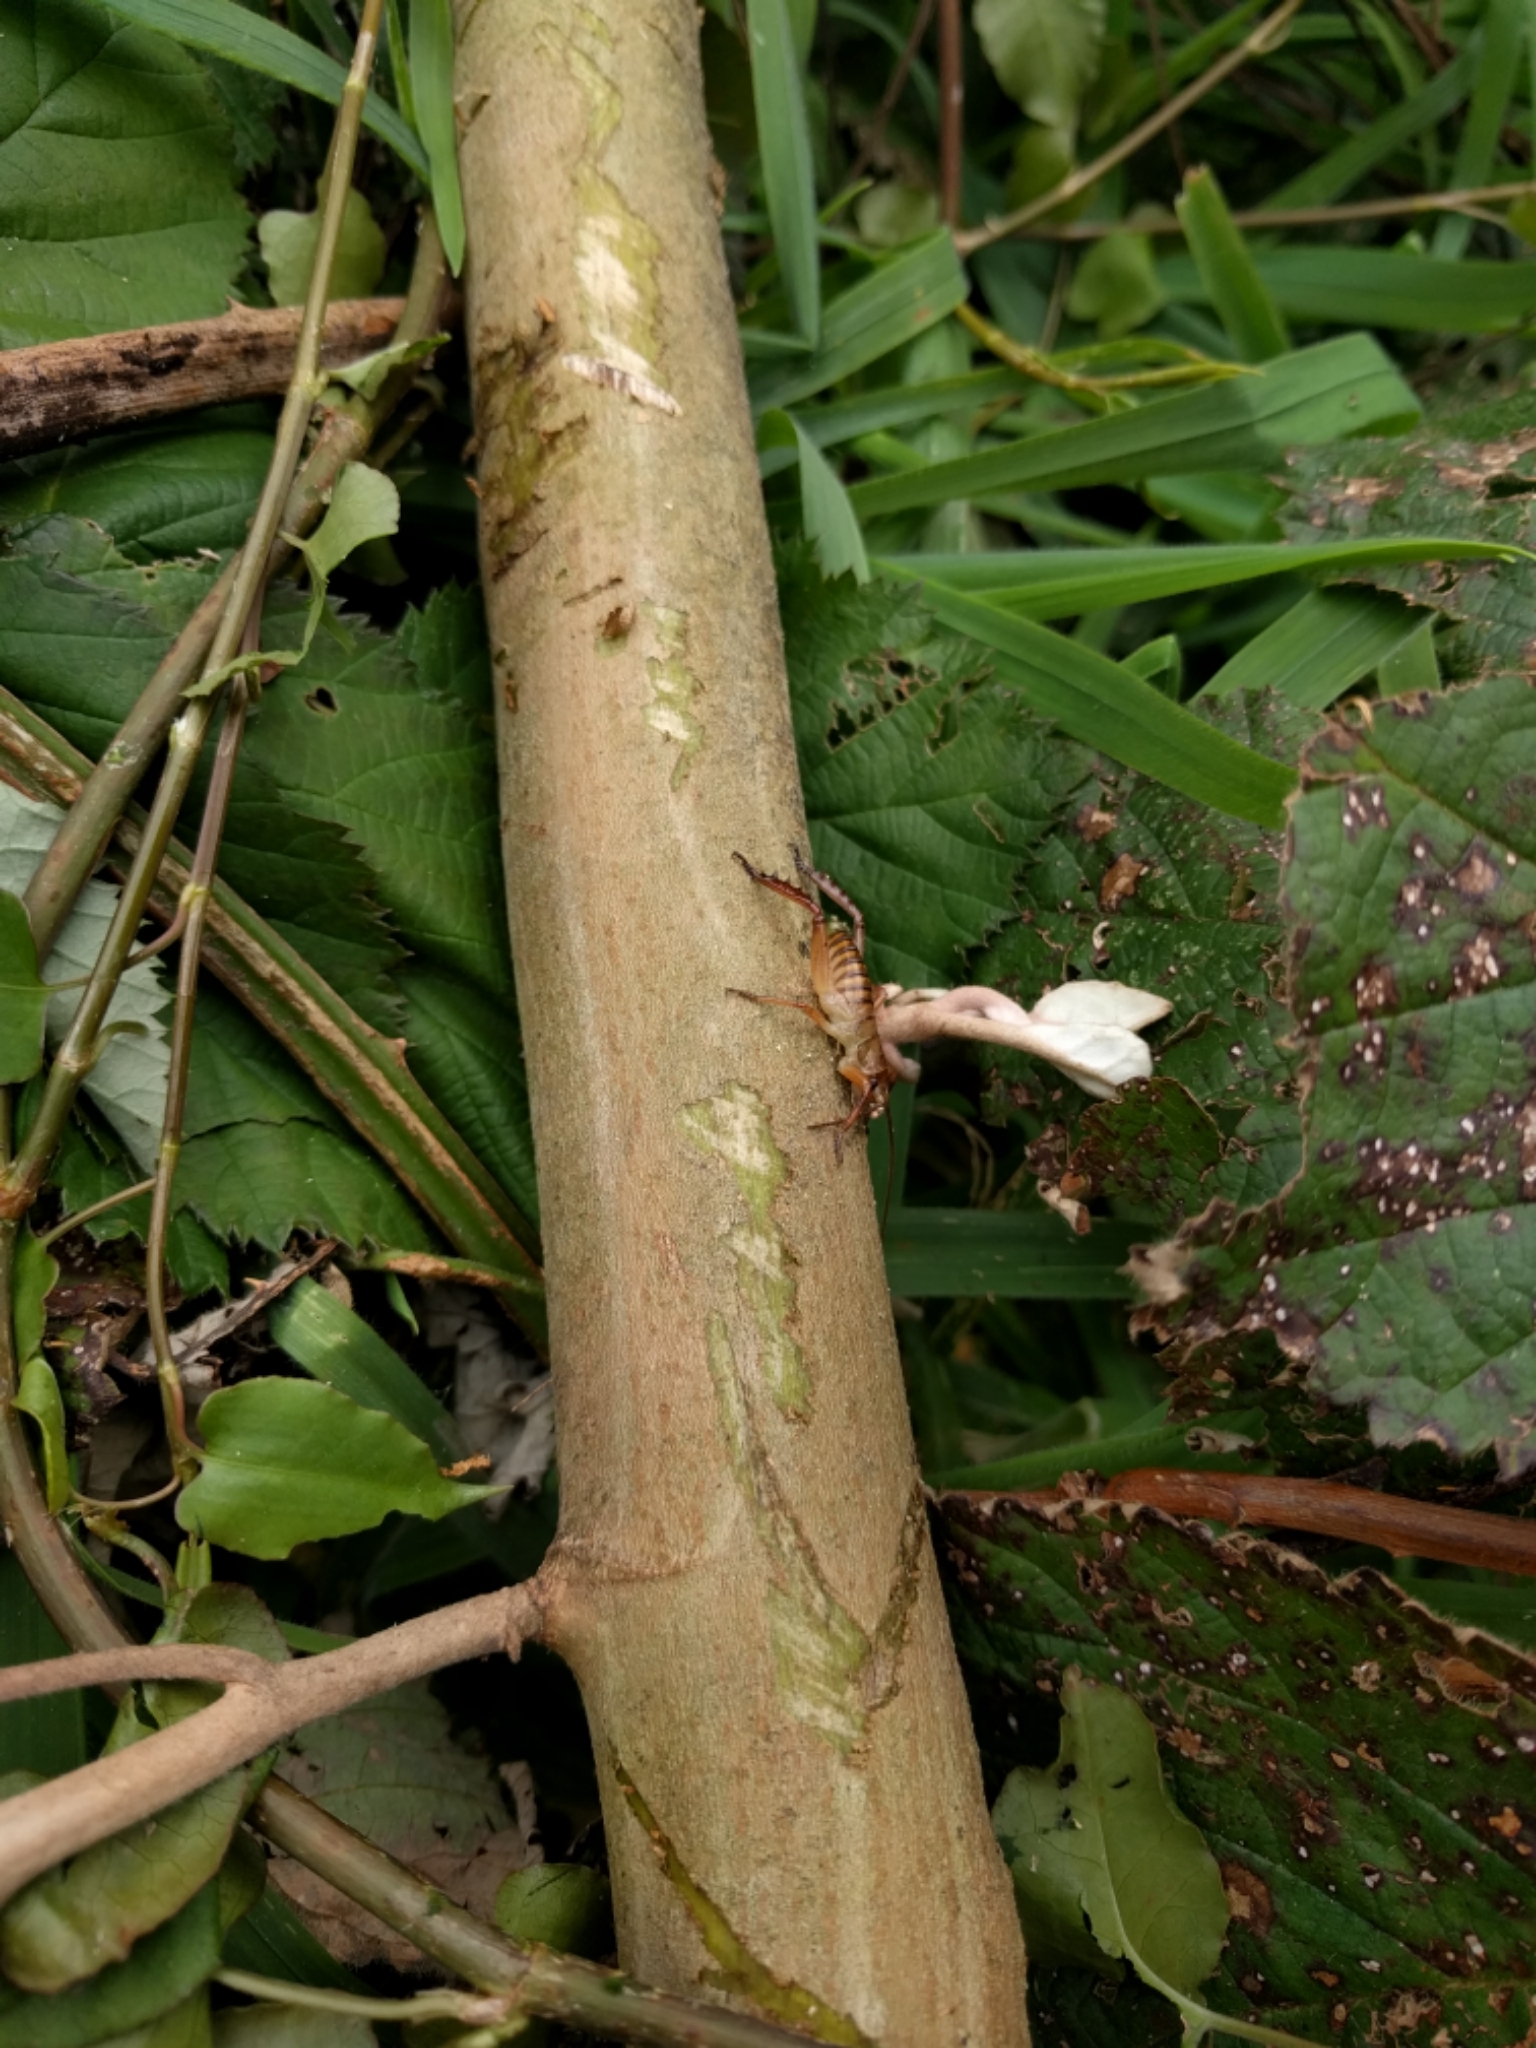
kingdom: Animalia
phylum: Arthropoda
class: Insecta
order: Orthoptera
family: Anostostomatidae
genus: Hemideina
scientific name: Hemideina crassidens
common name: Wellington tree weta
